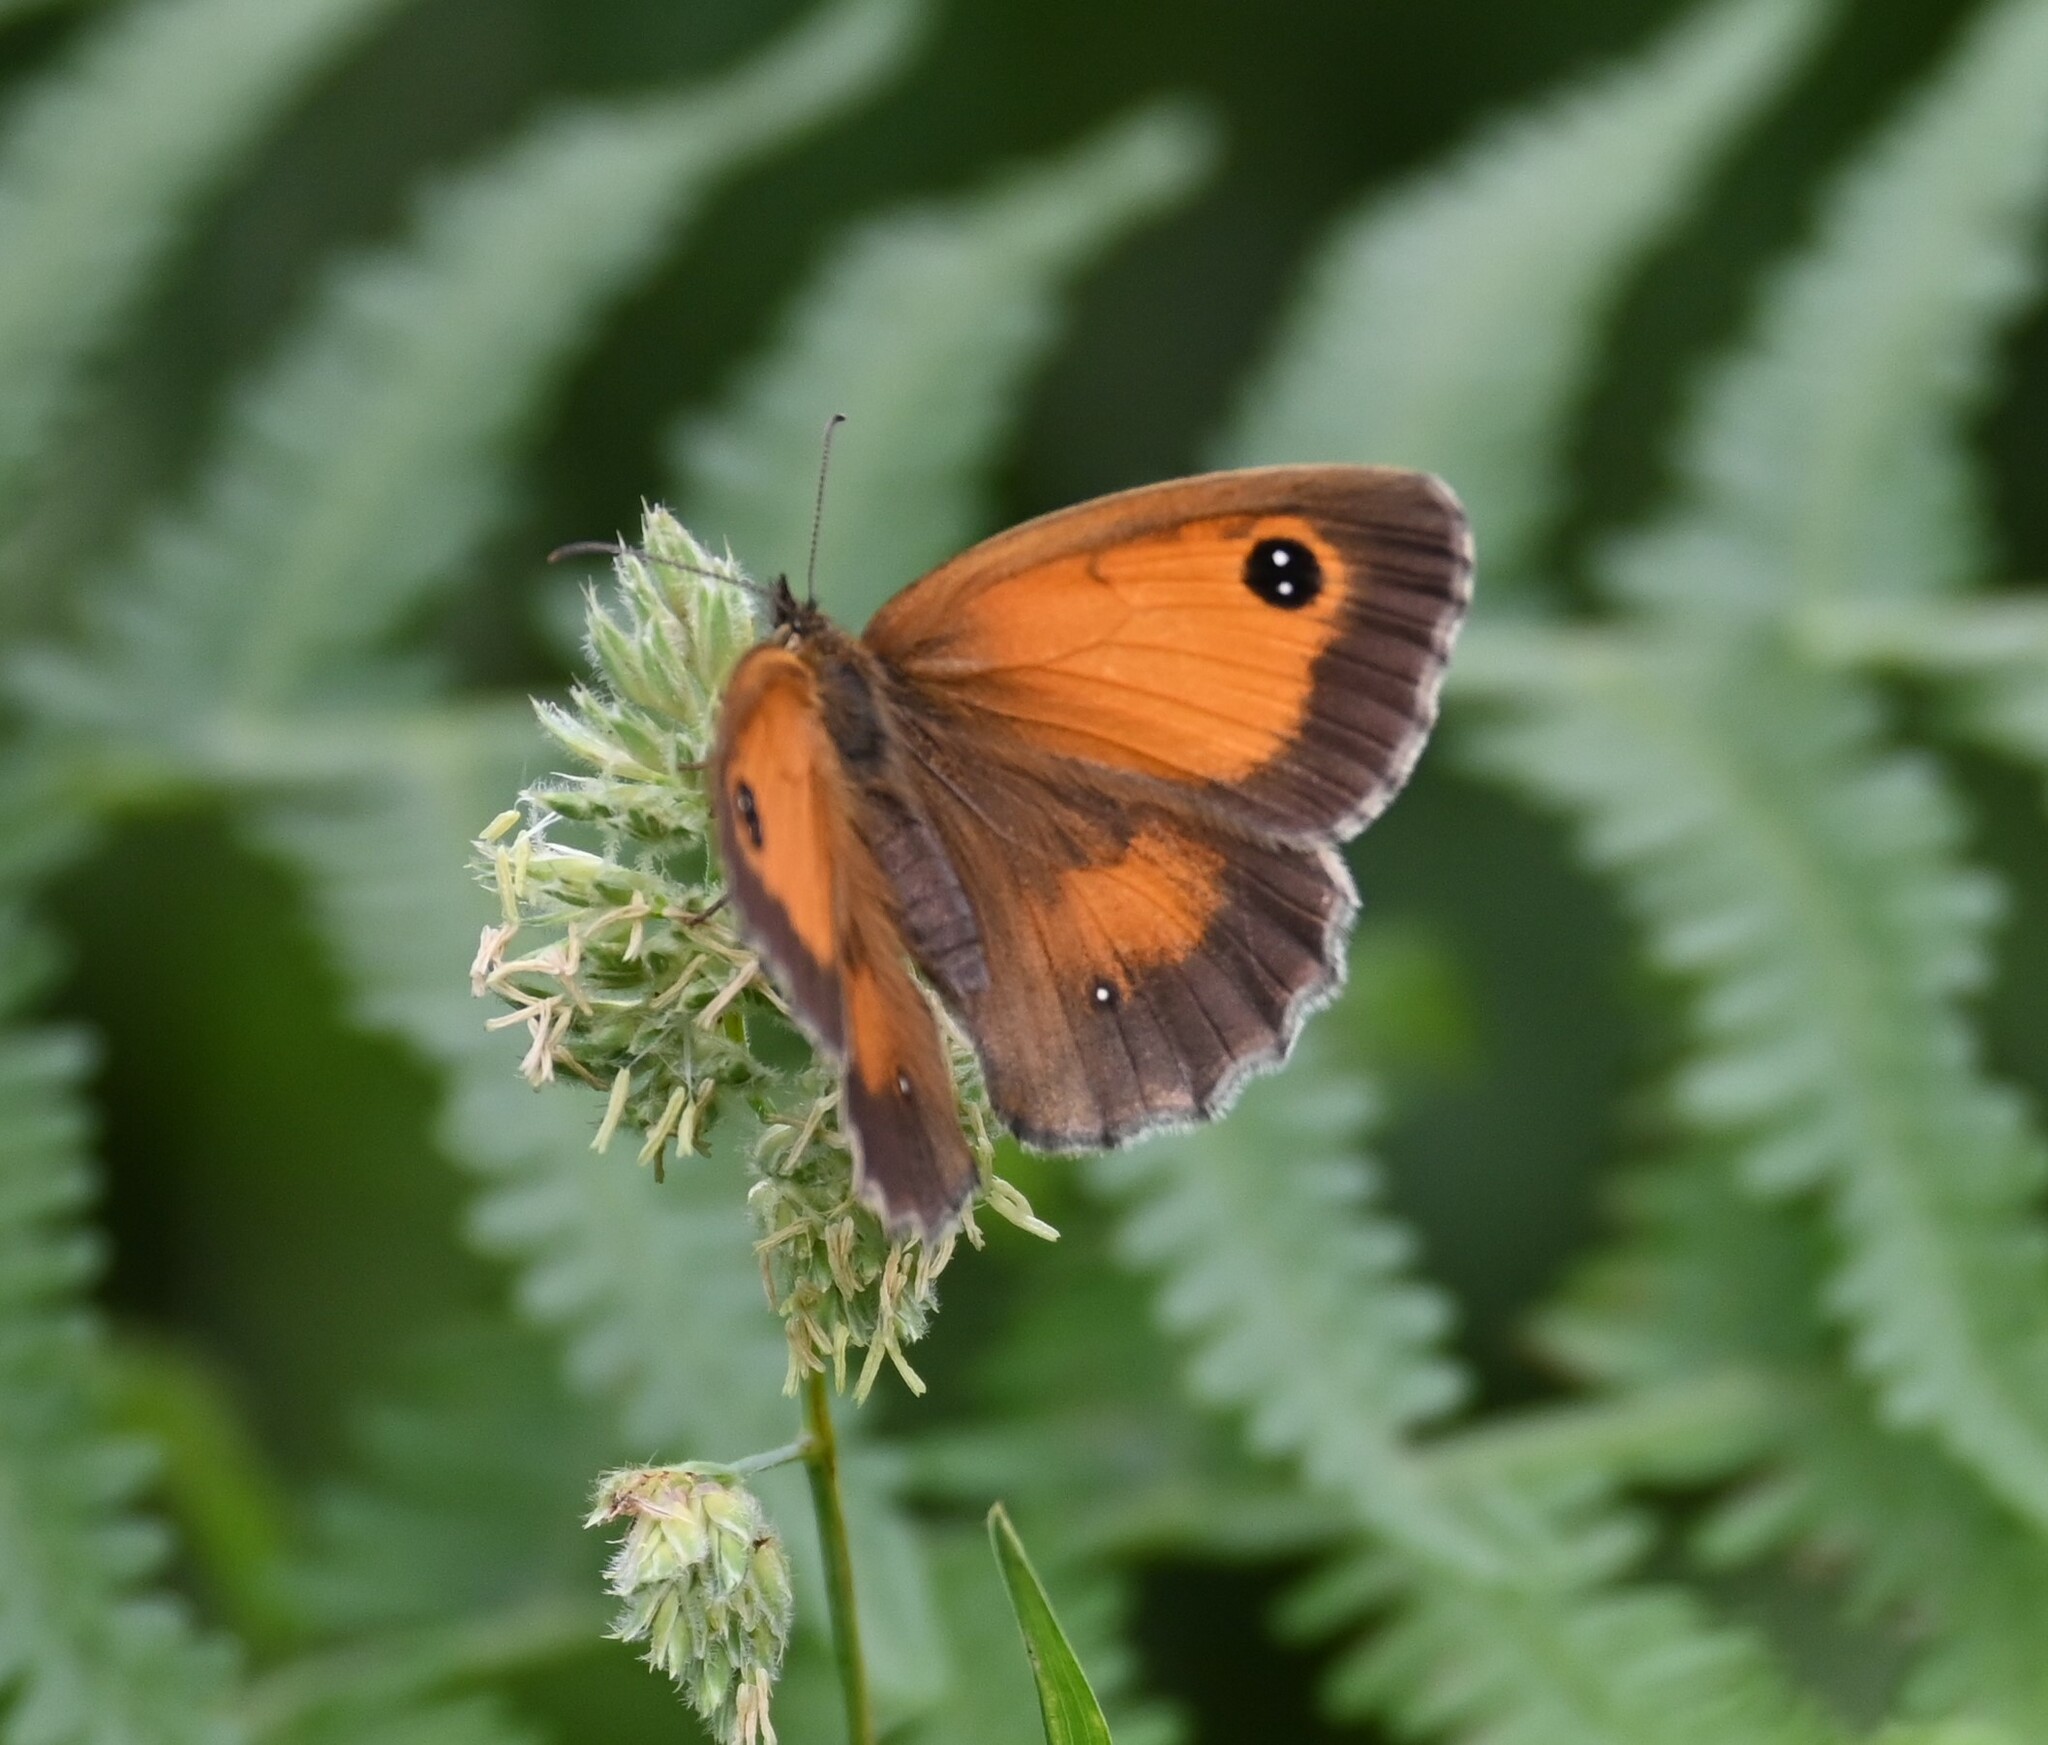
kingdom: Animalia
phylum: Arthropoda
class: Insecta
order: Lepidoptera
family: Nymphalidae
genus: Pyronia
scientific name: Pyronia tithonus
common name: Gatekeeper
